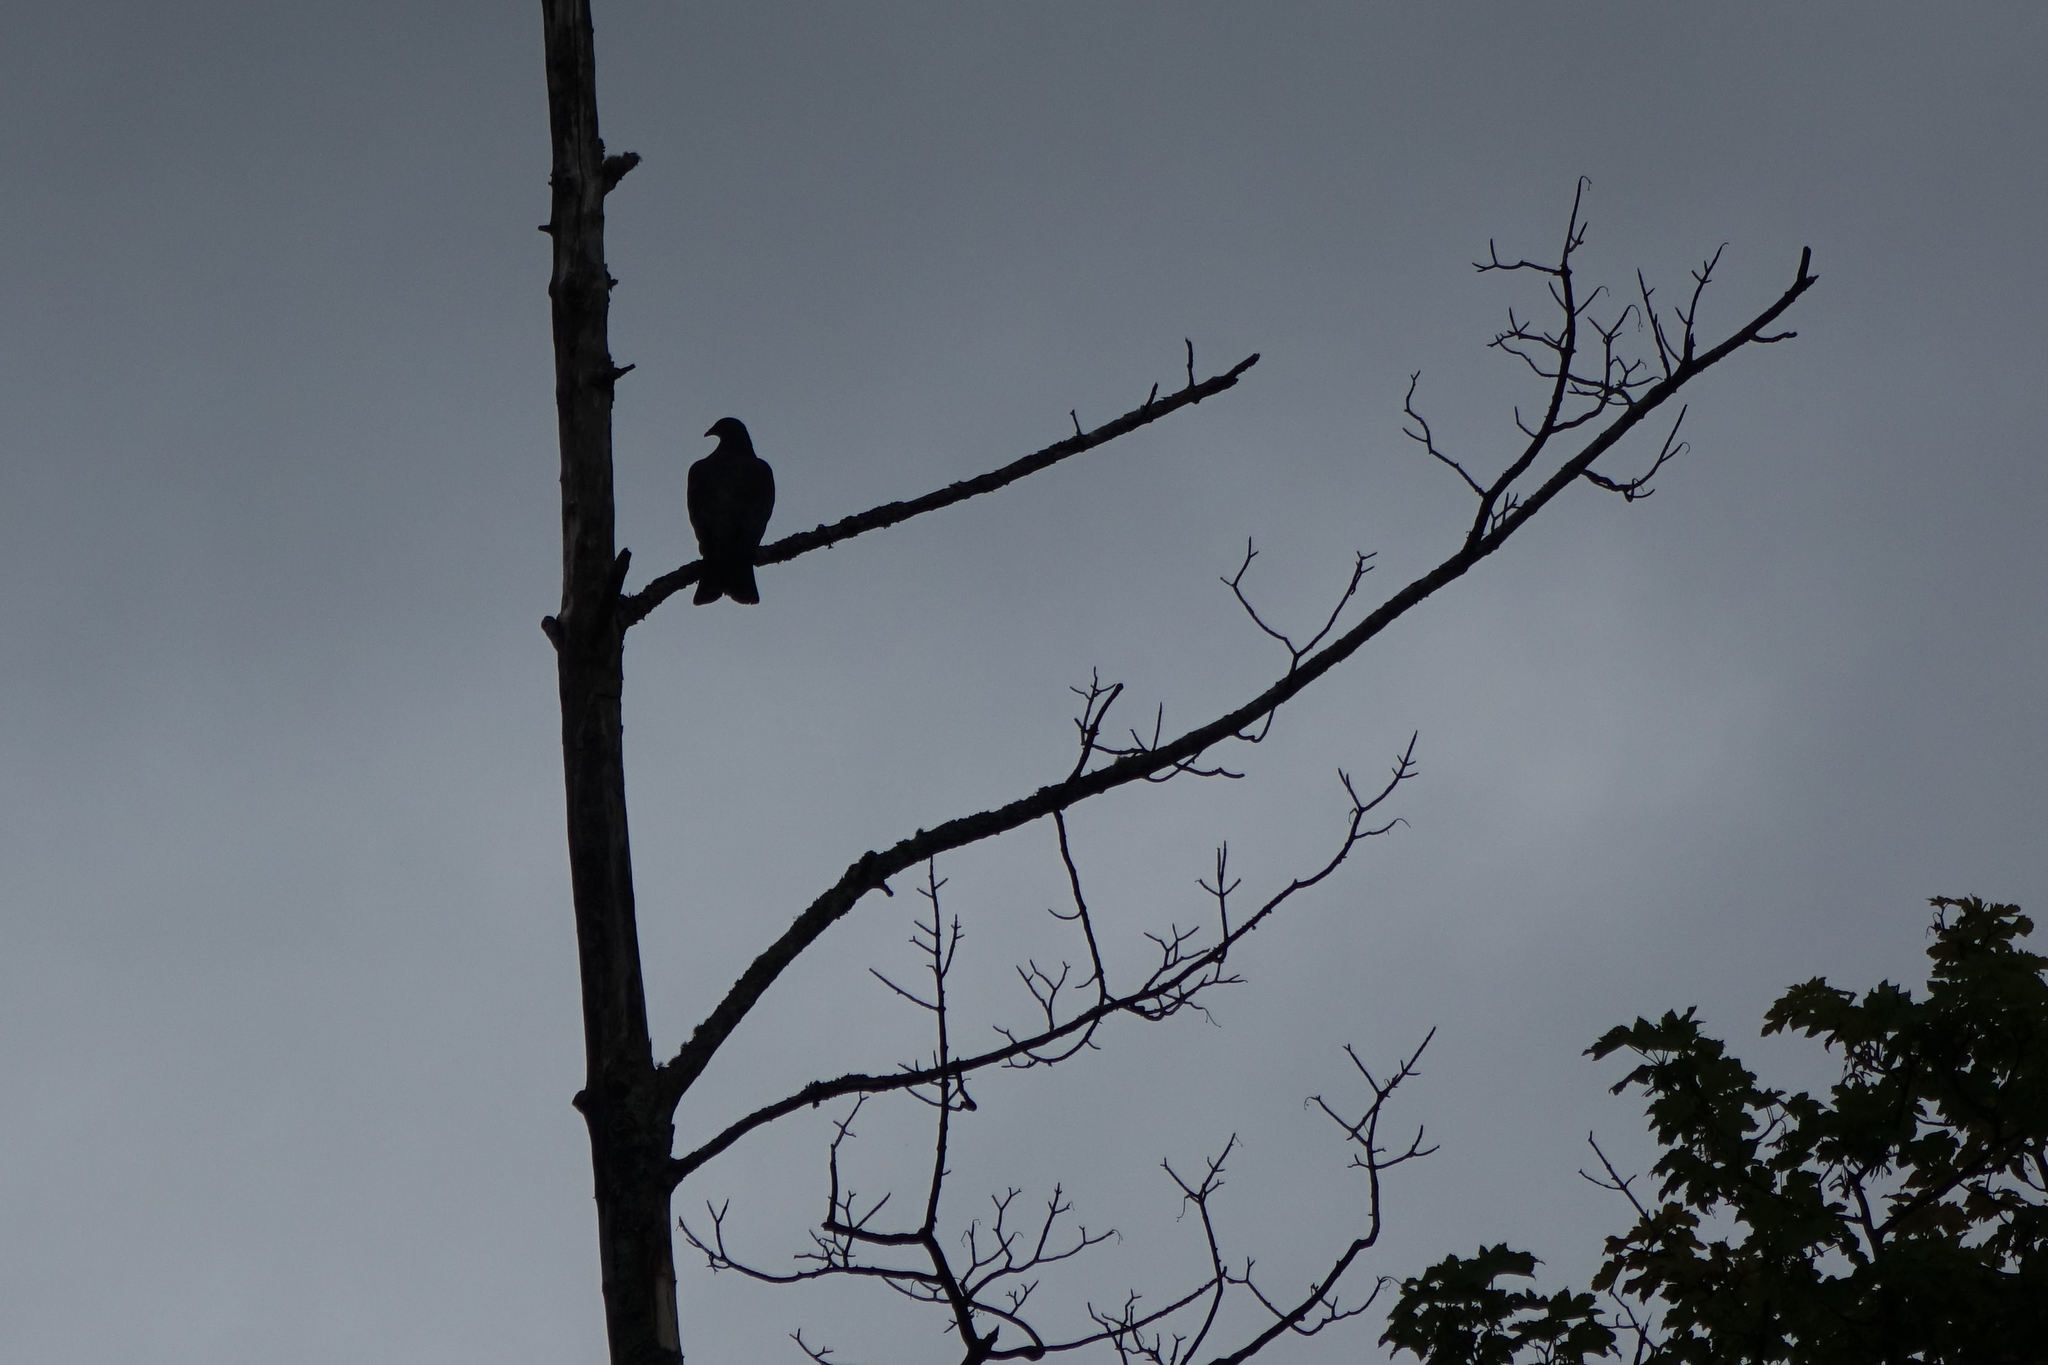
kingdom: Animalia
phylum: Chordata
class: Aves
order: Columbiformes
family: Columbidae
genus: Hemiphaga
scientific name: Hemiphaga novaeseelandiae
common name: New zealand pigeon
